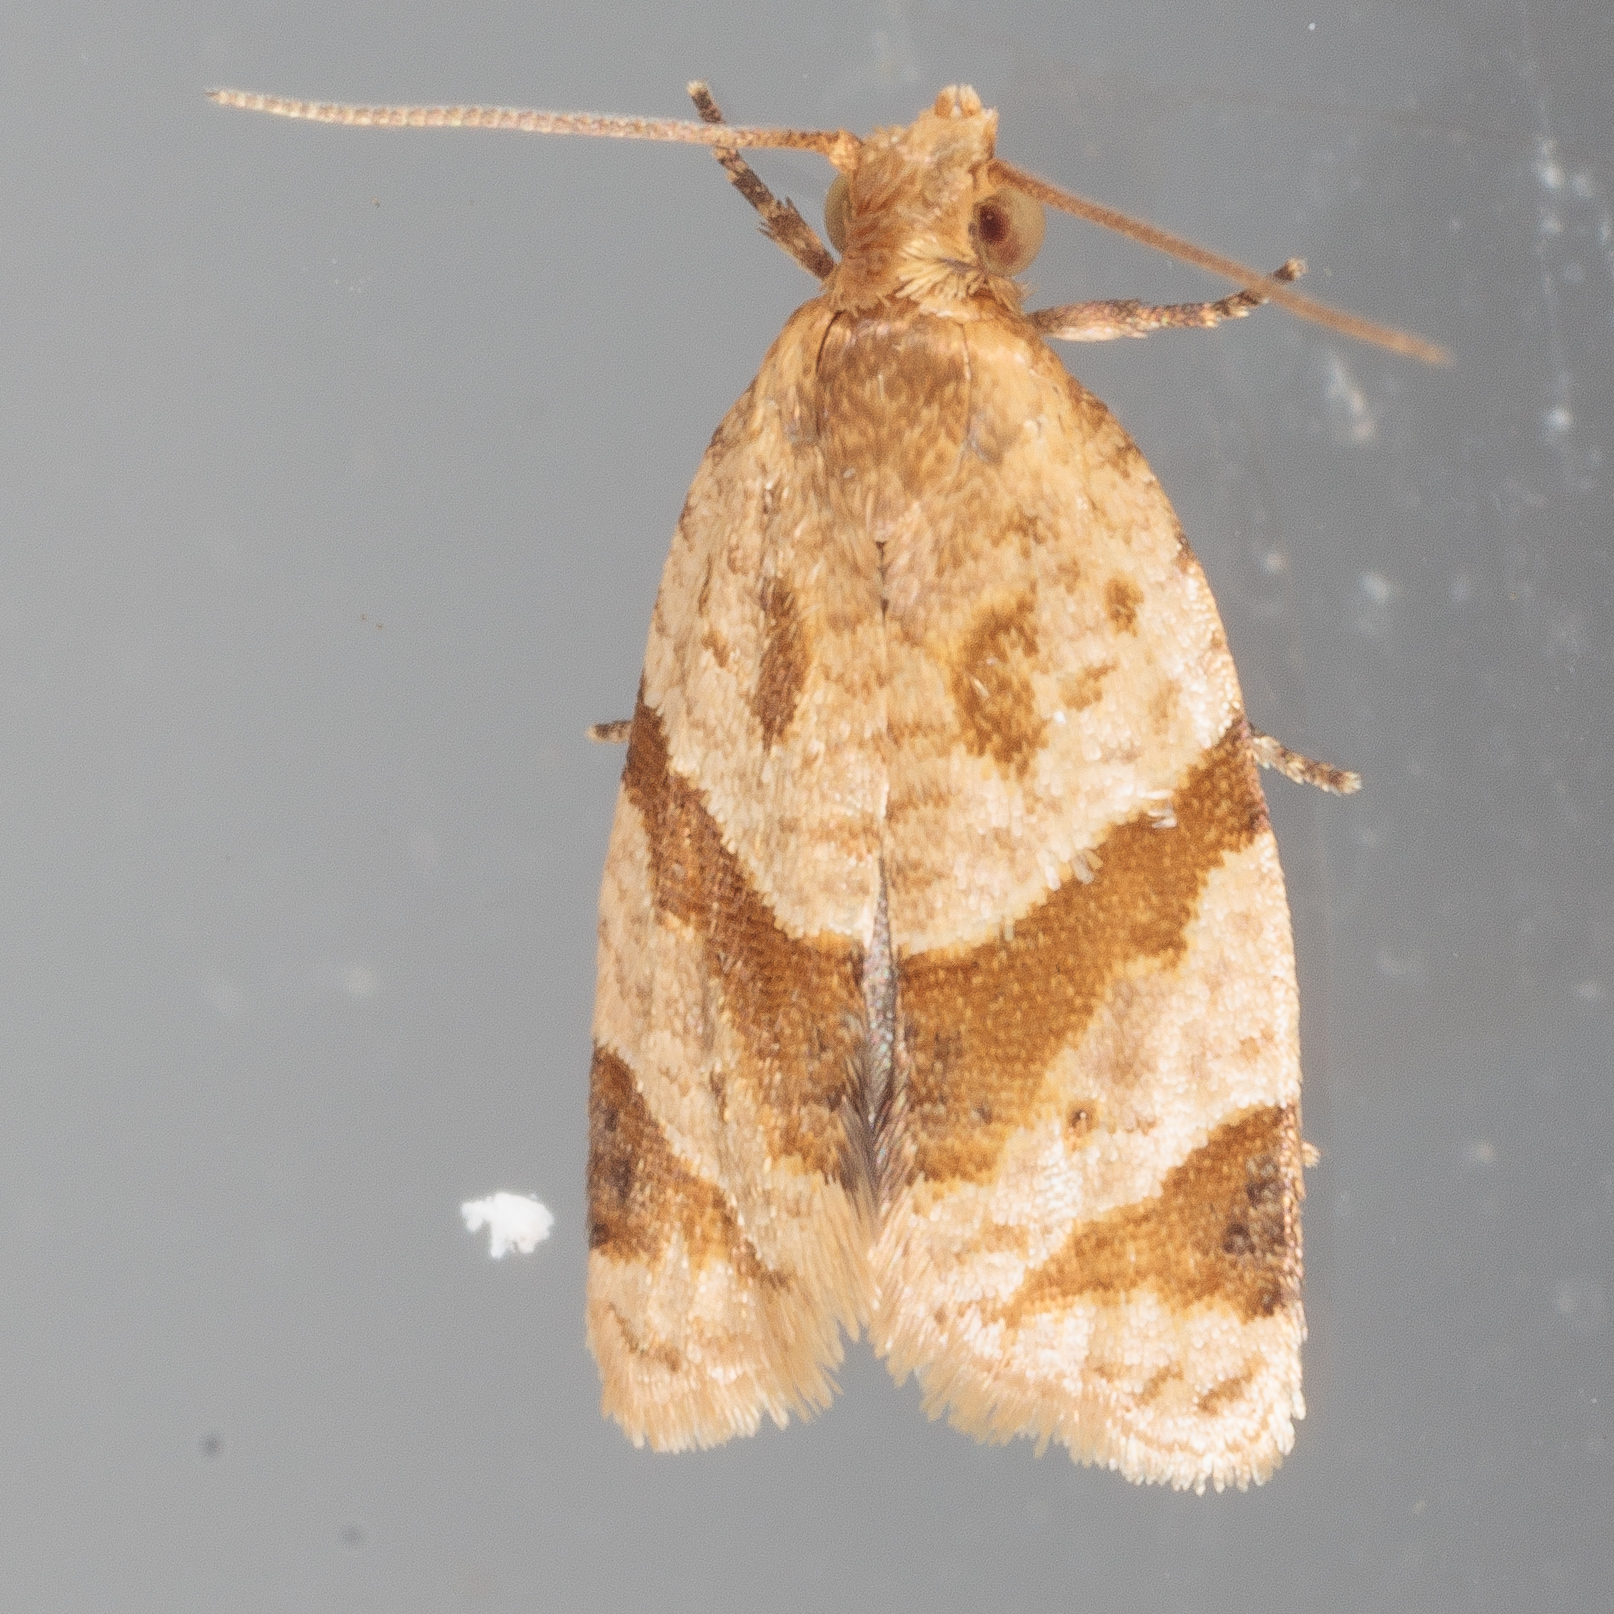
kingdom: Animalia
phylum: Arthropoda
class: Insecta
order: Lepidoptera
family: Tortricidae
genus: Clepsis
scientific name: Clepsis peritana
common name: Garden tortrix
